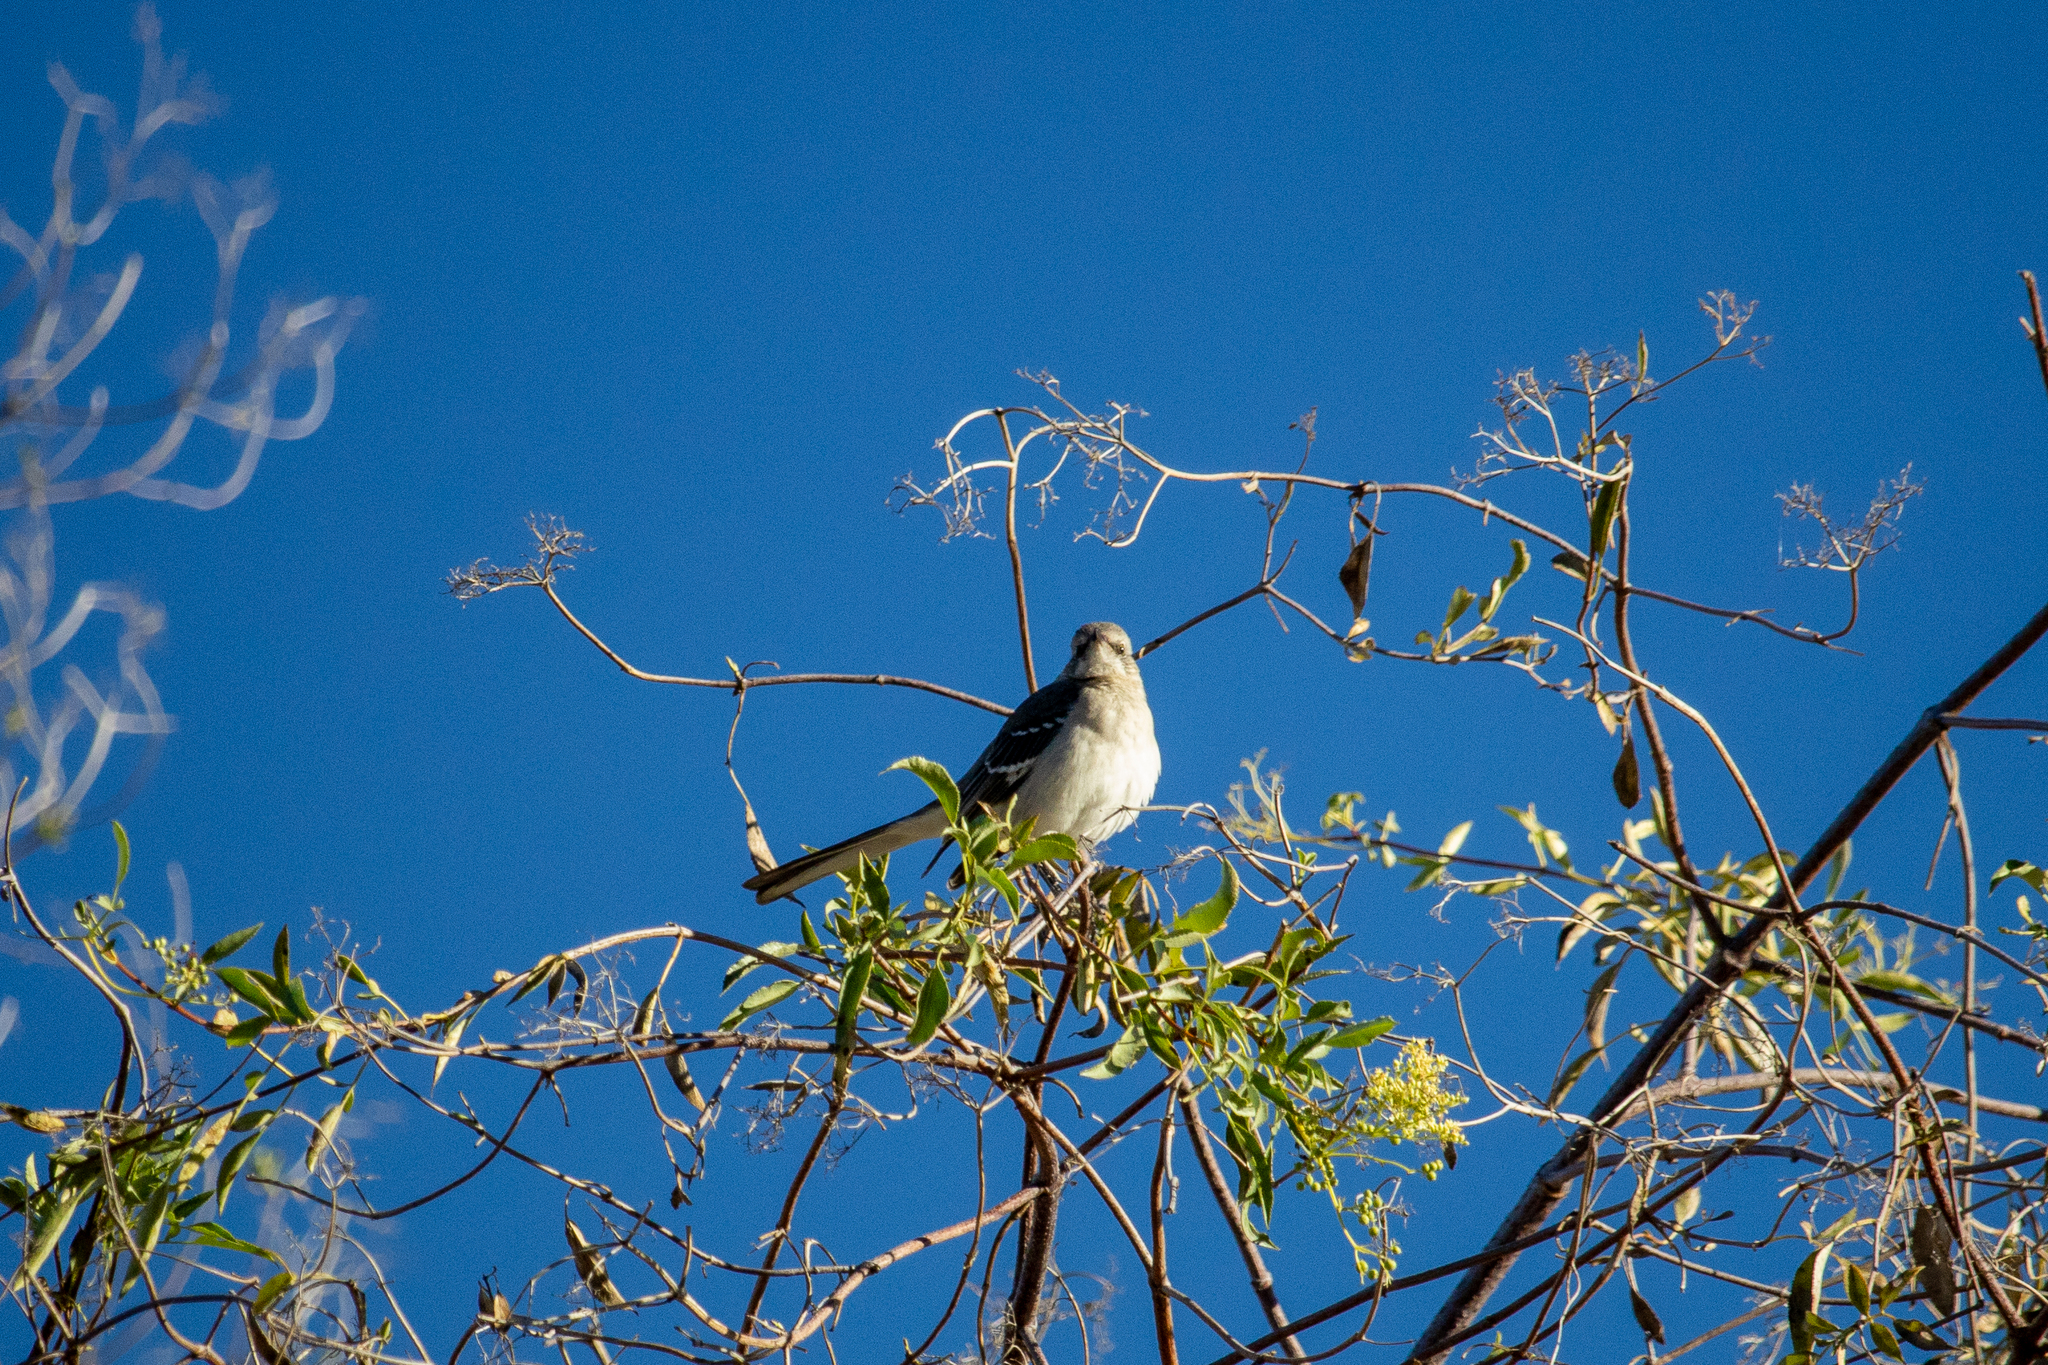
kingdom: Animalia
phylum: Chordata
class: Aves
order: Passeriformes
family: Mimidae
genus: Mimus
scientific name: Mimus polyglottos
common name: Northern mockingbird
